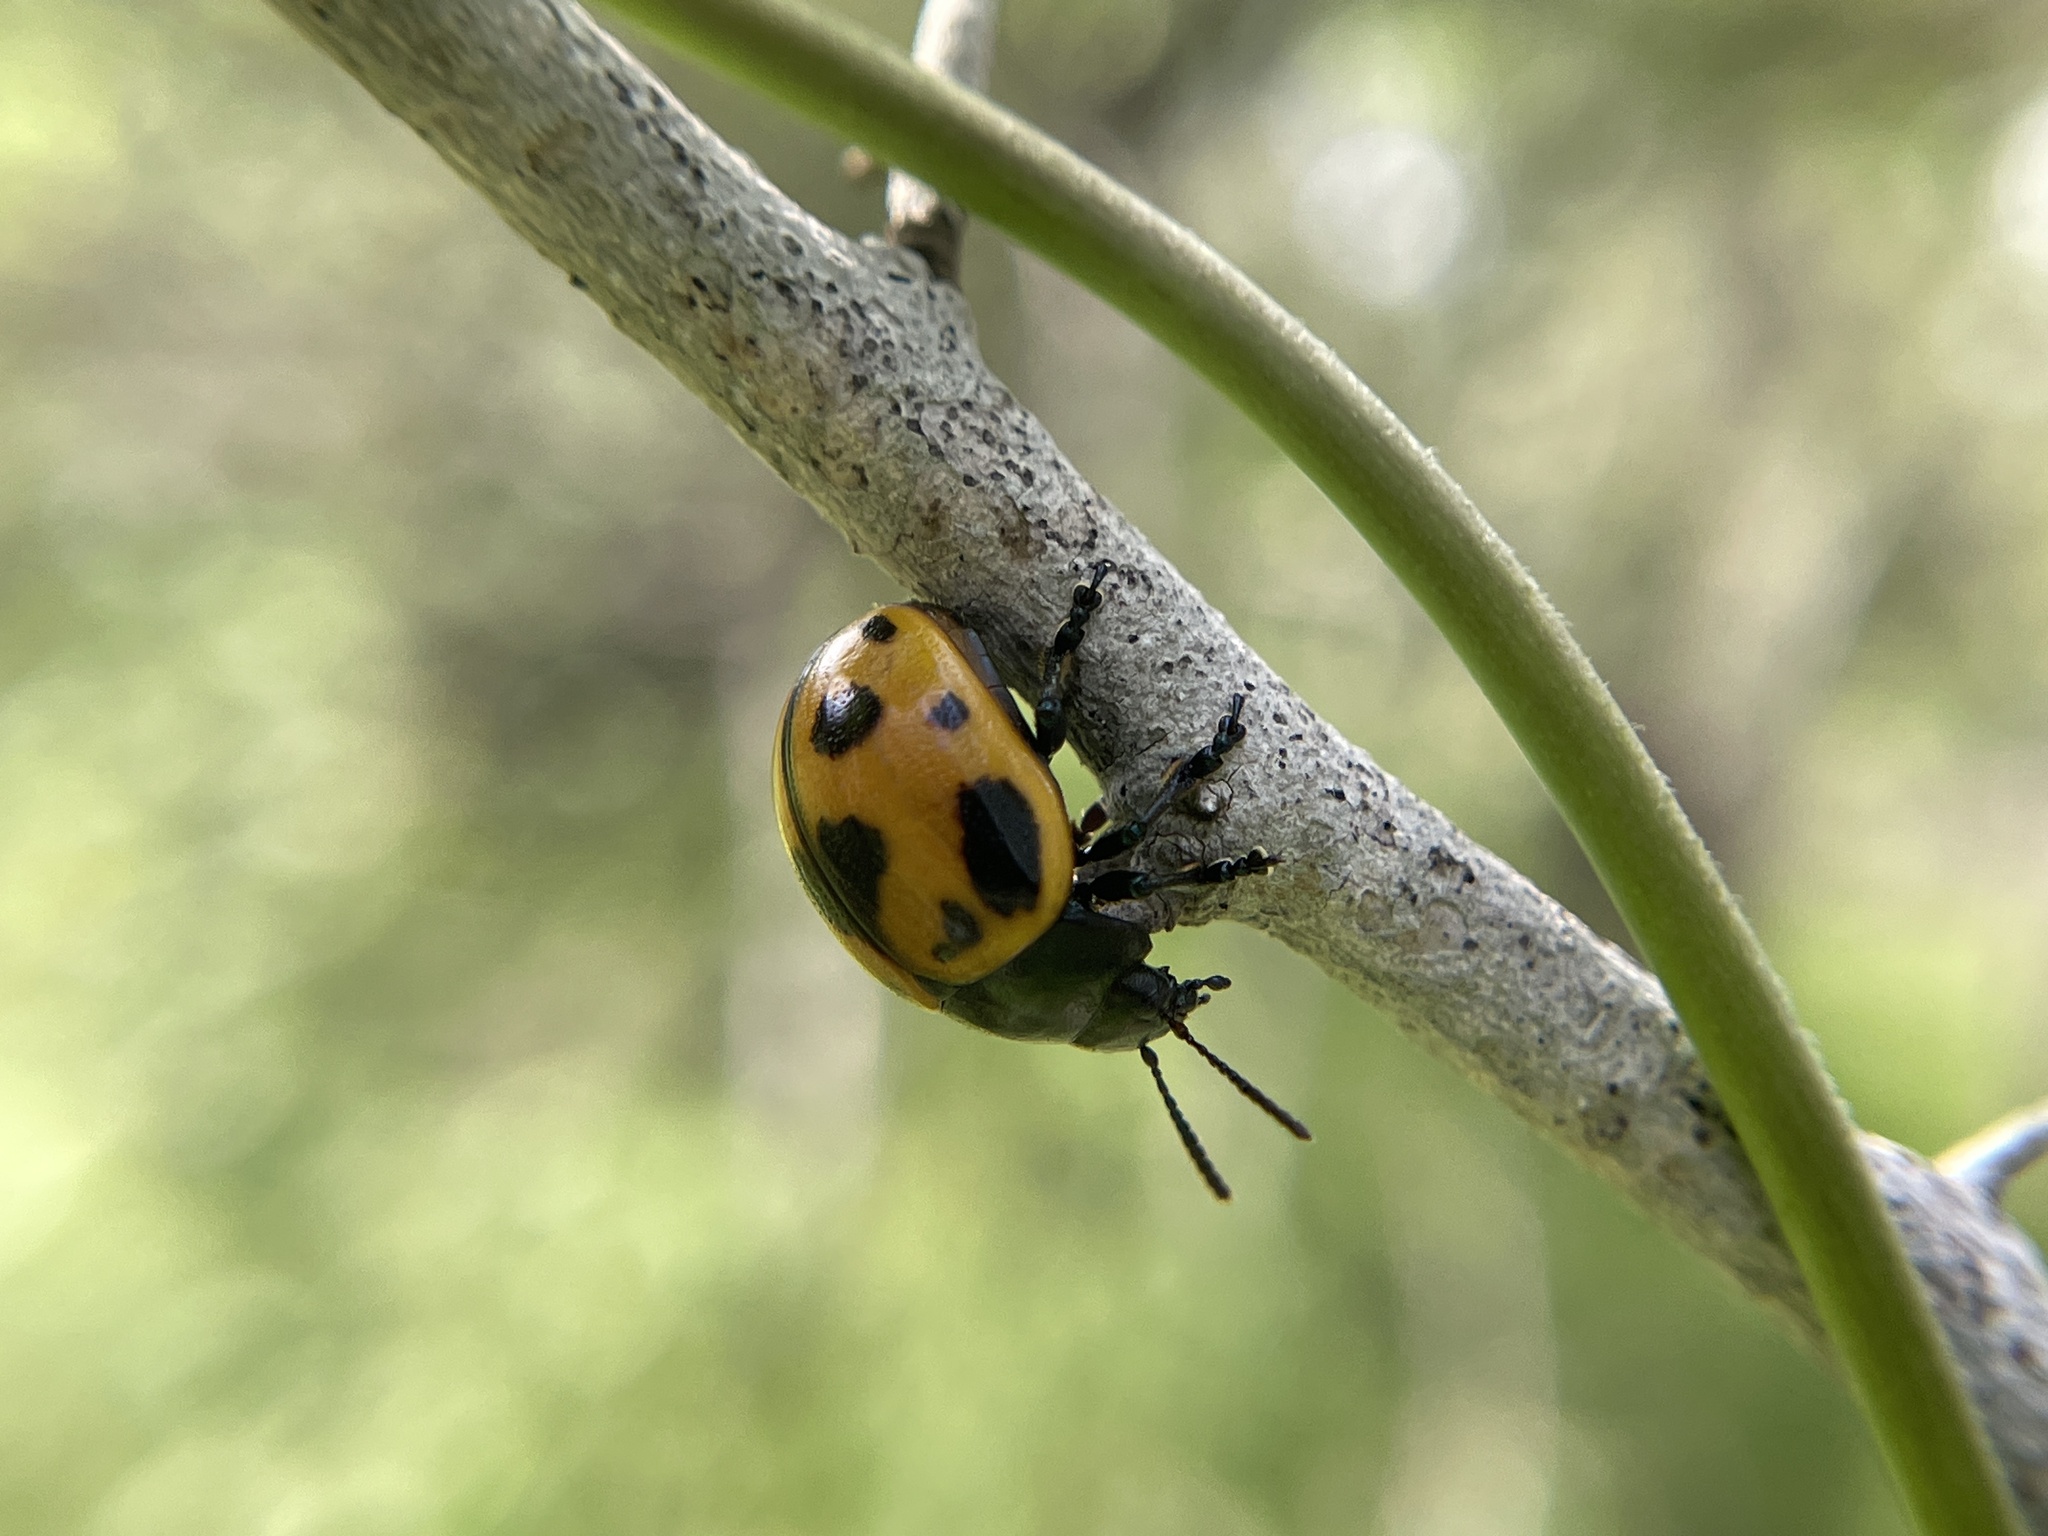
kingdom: Animalia
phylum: Arthropoda
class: Insecta
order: Coleoptera
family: Chrysomelidae
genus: Labidomera
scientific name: Labidomera clivicollis
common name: Swamp milkweed leaf beetle
